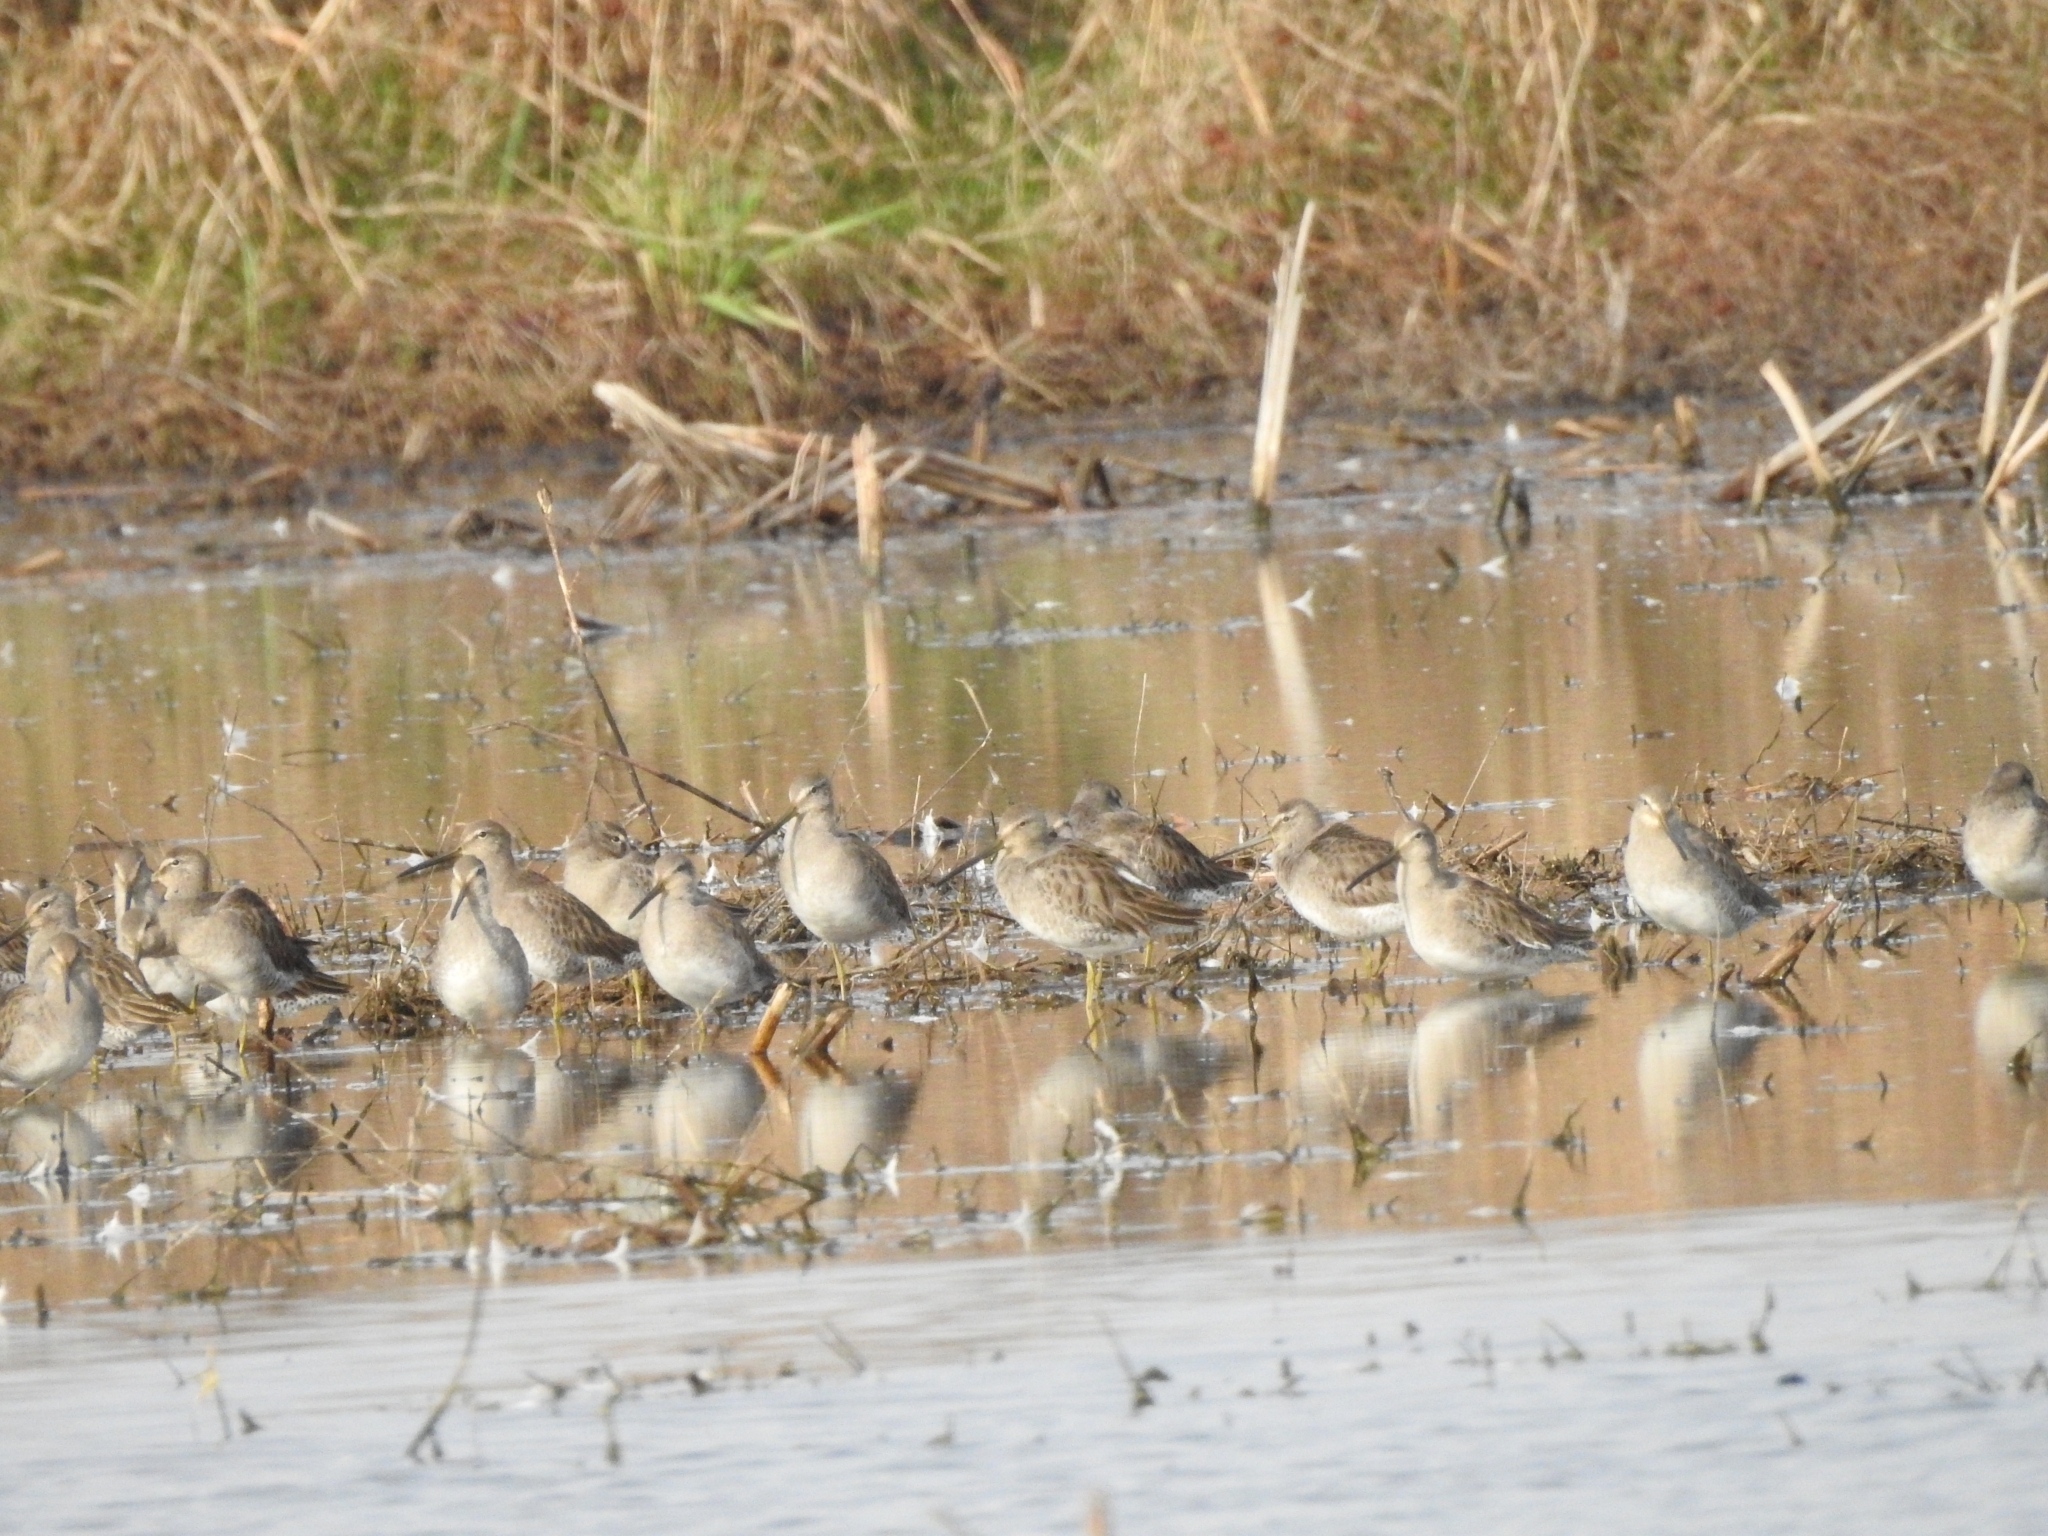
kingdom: Animalia
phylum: Chordata
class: Aves
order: Charadriiformes
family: Scolopacidae
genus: Limnodromus
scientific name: Limnodromus scolopaceus
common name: Long-billed dowitcher
